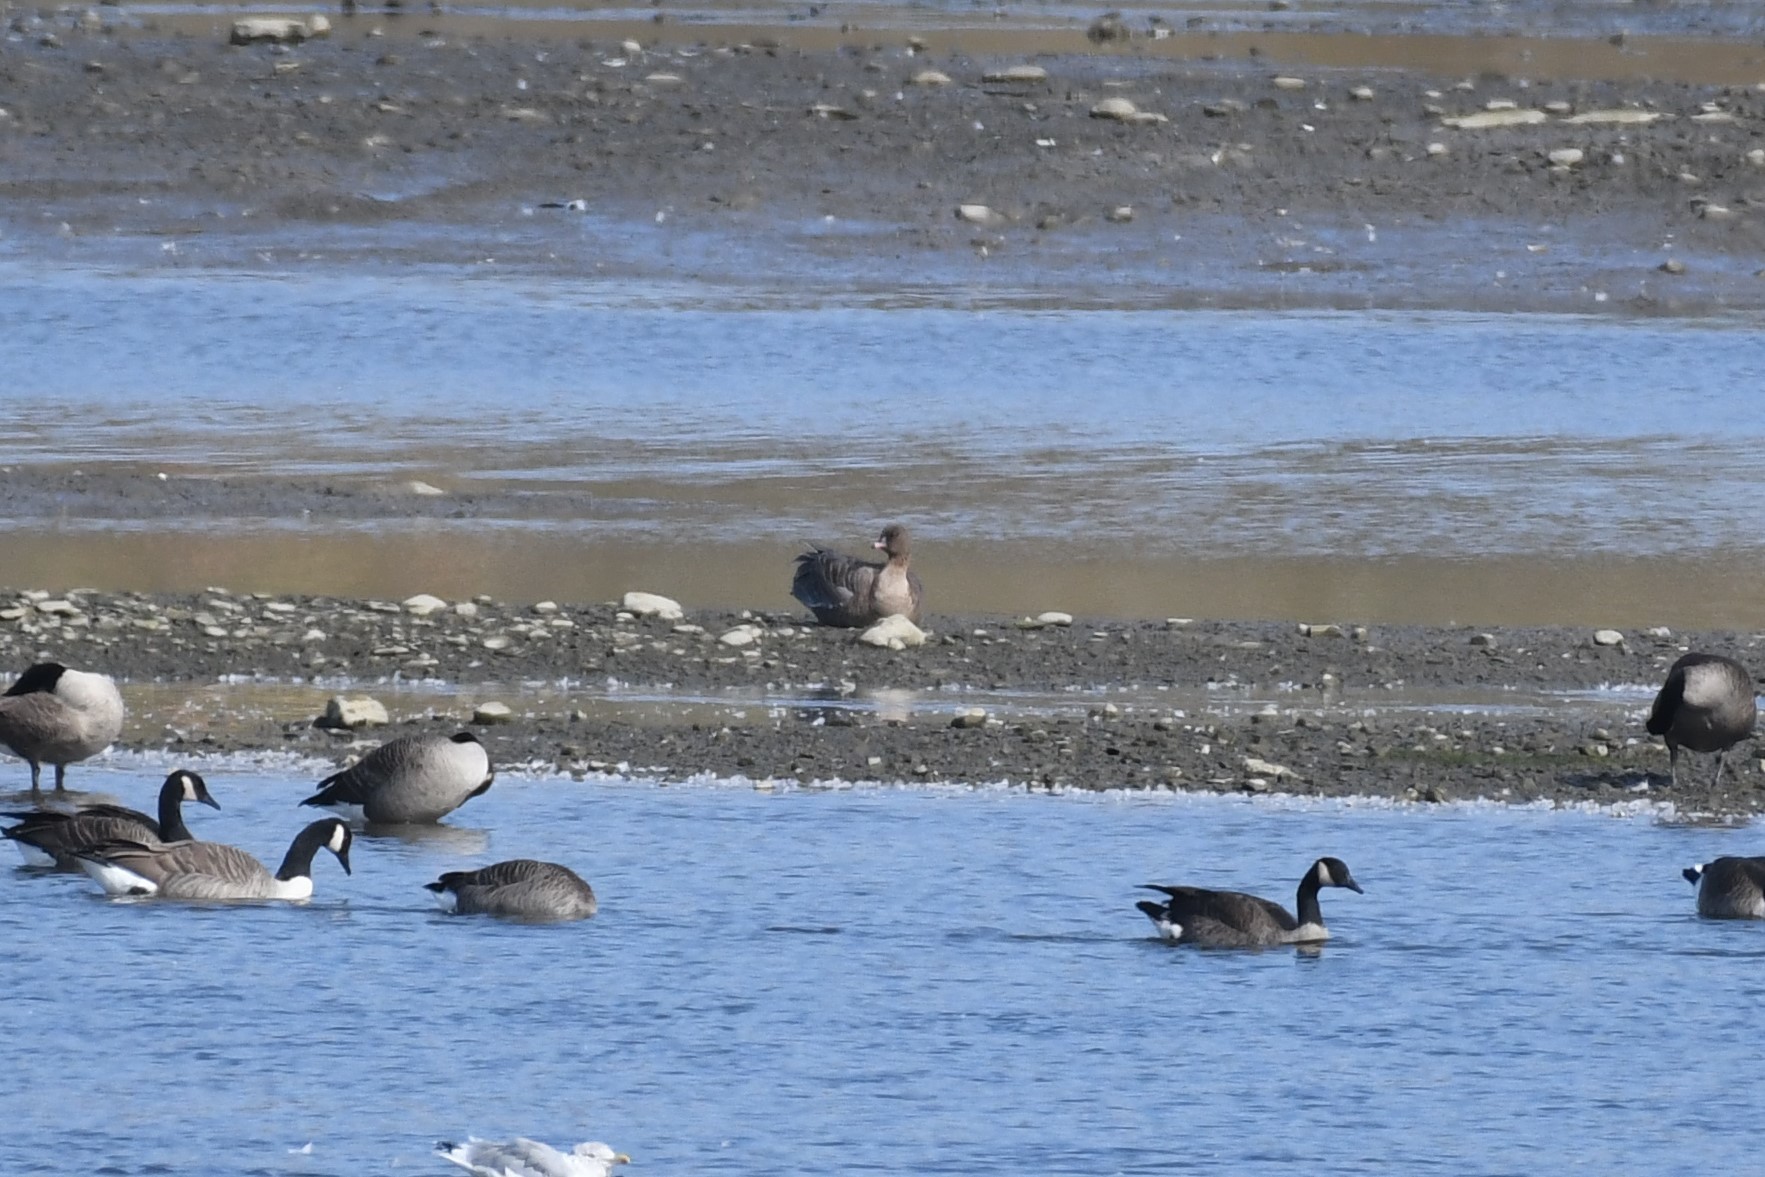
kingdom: Animalia
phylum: Chordata
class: Aves
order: Anseriformes
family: Anatidae
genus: Anser
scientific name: Anser brachyrhynchus
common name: Pink-footed goose
